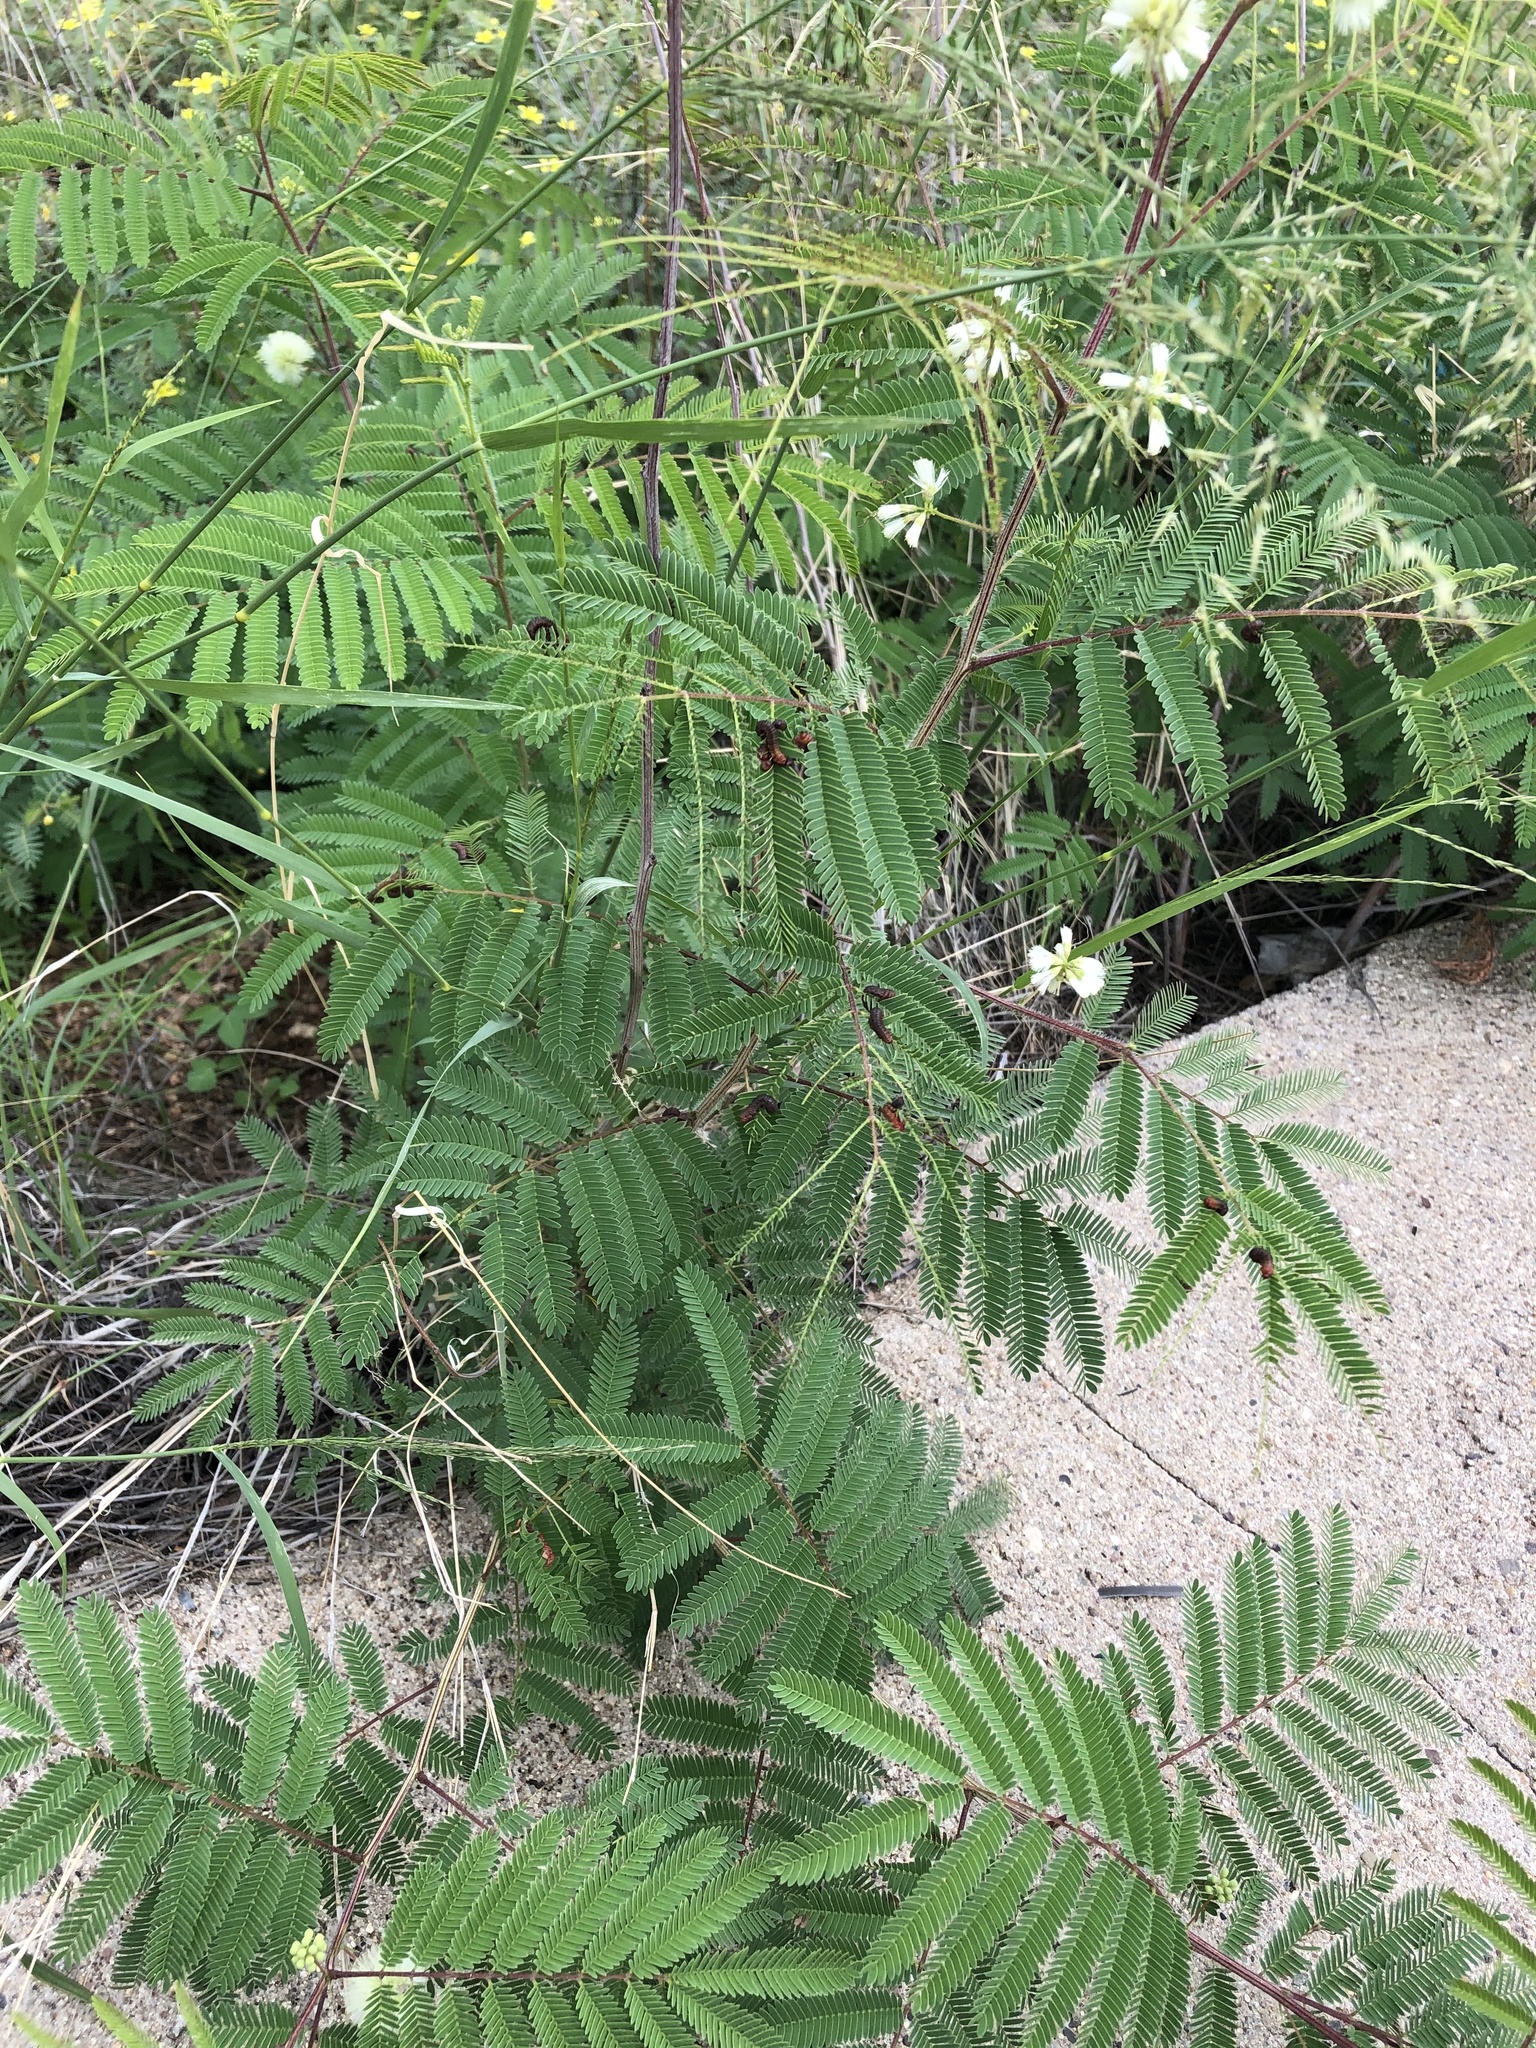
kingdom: Plantae
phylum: Tracheophyta
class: Magnoliopsida
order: Fabales
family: Fabaceae
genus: Acaciella
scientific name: Acaciella angustissima
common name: Prairie acacia
